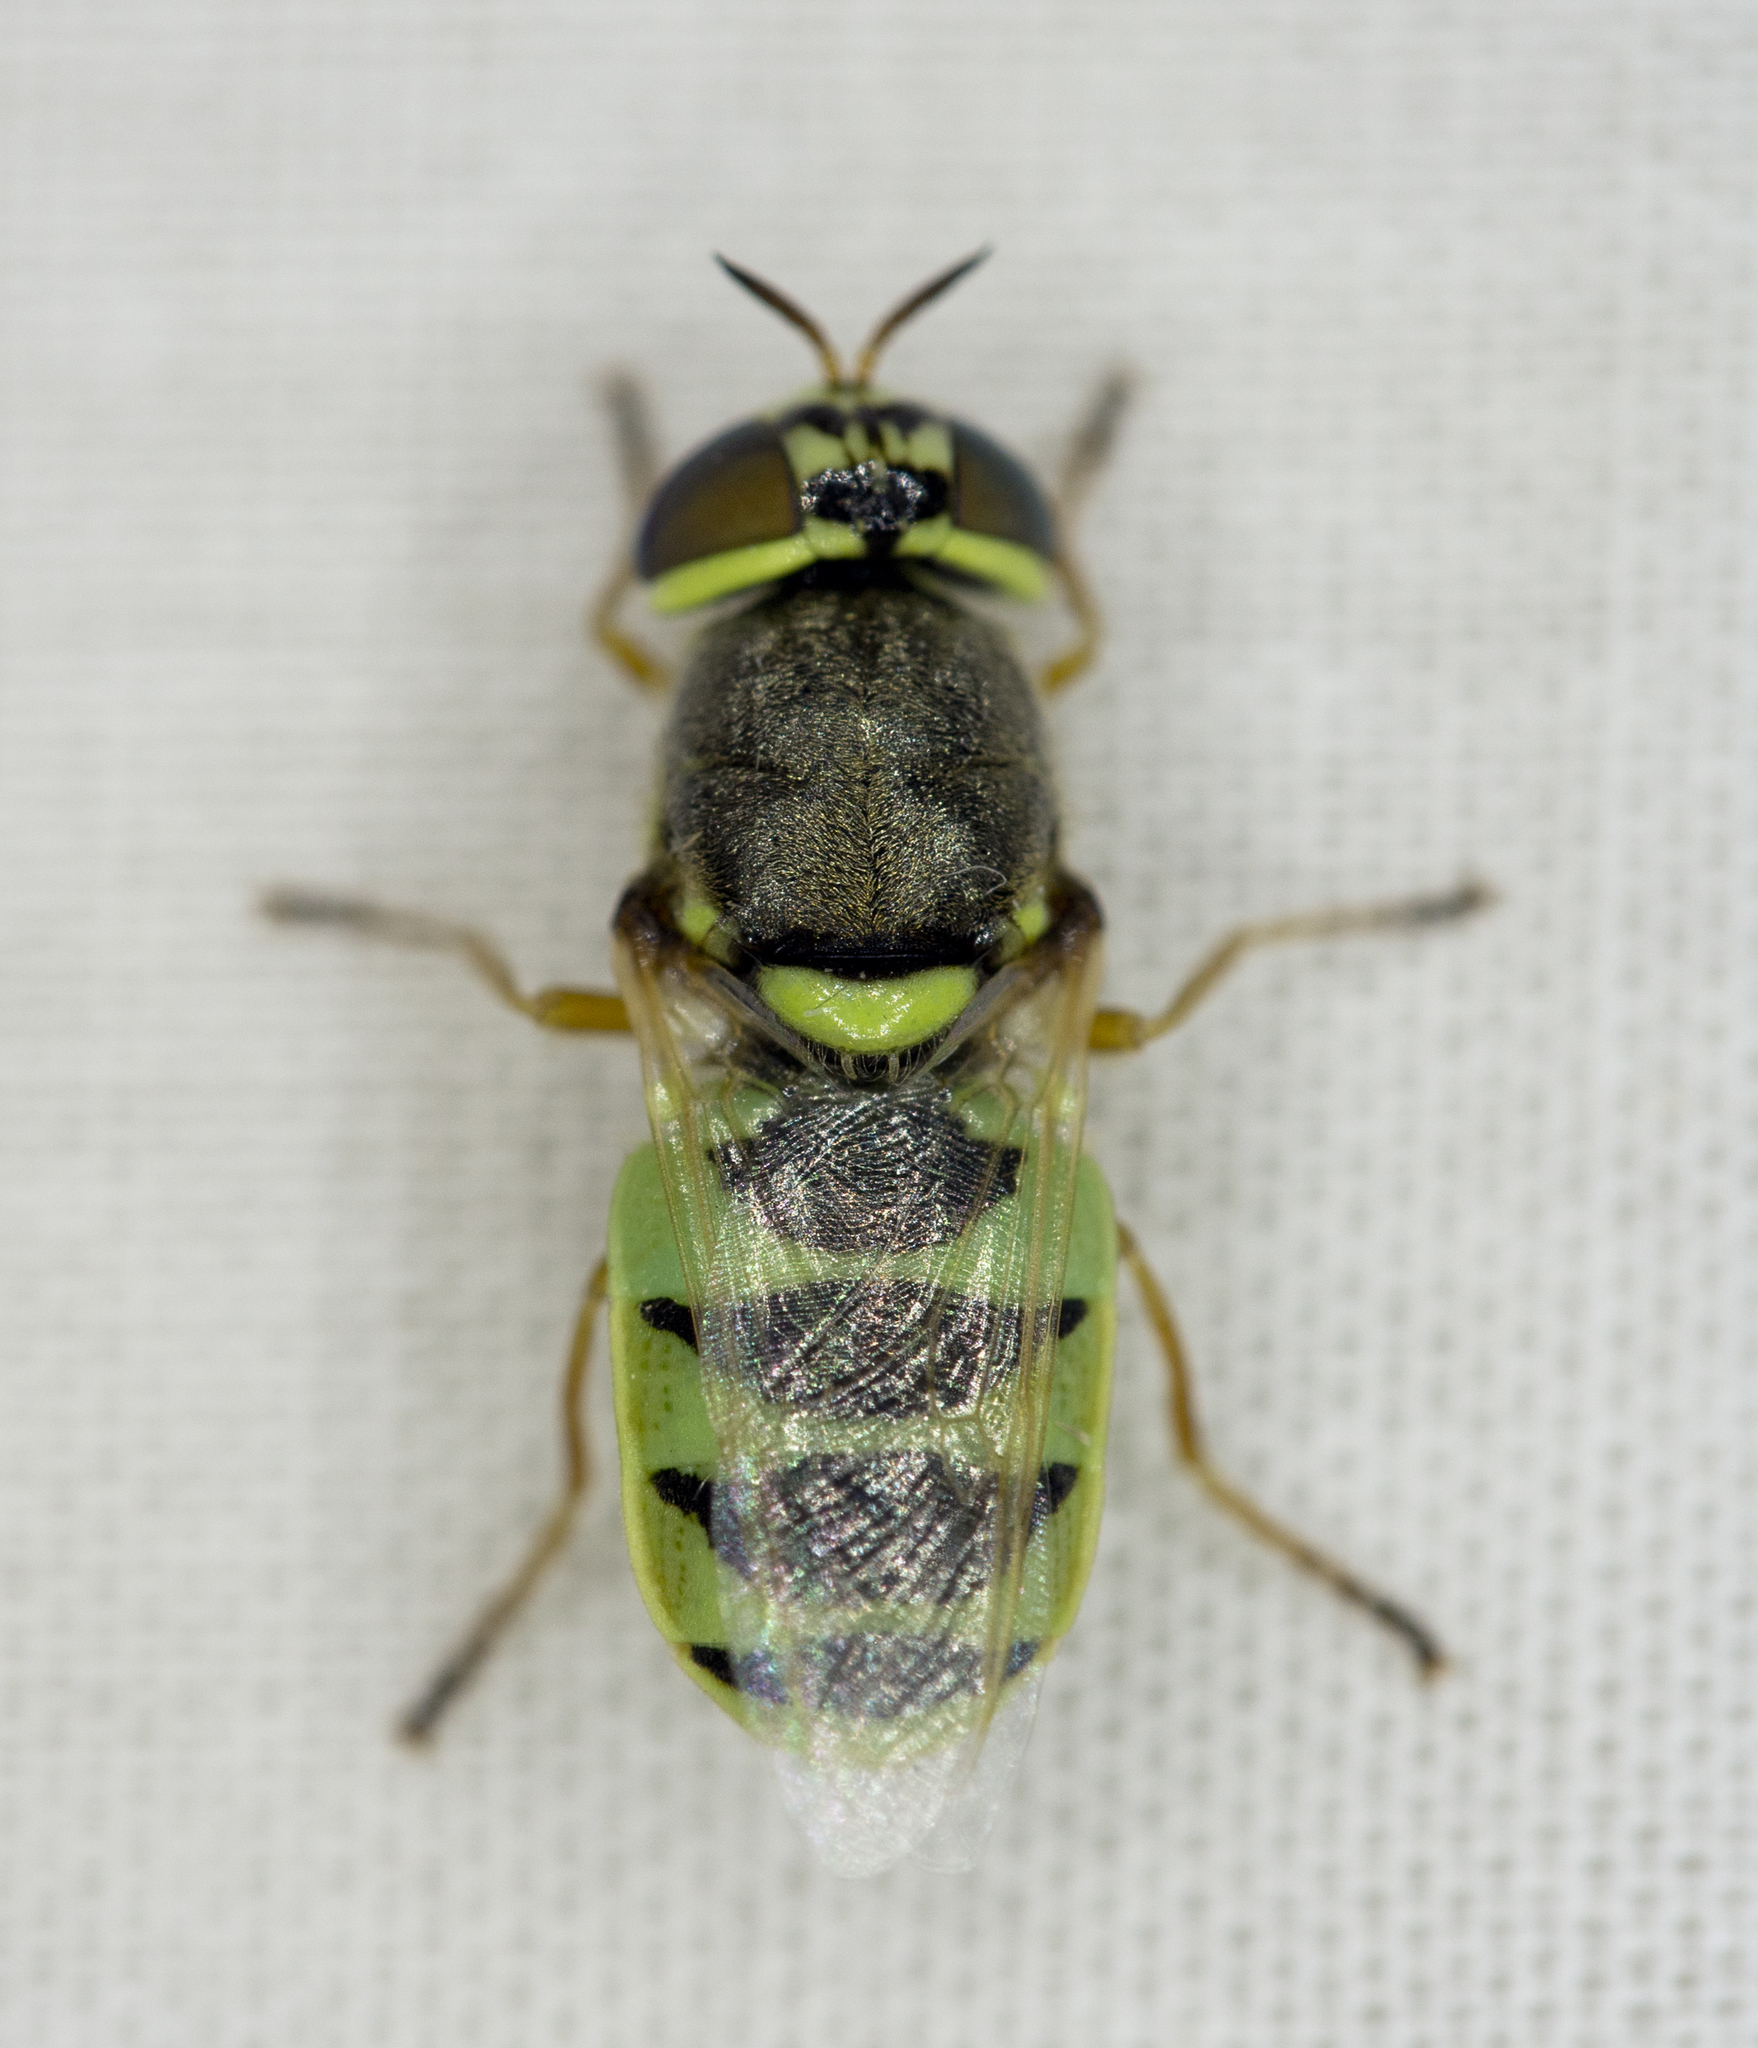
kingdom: Animalia
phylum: Arthropoda
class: Insecta
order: Diptera
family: Stratiomyidae
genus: Odontomyia
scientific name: Odontomyia cincta
